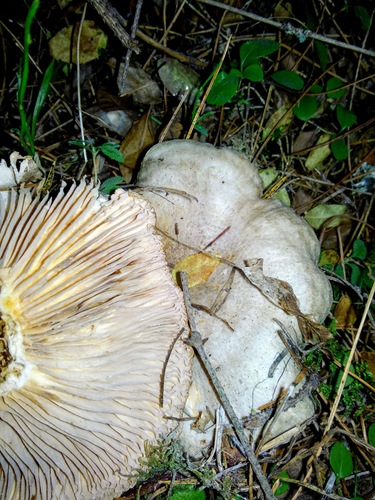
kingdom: Fungi
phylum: Basidiomycota
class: Agaricomycetes
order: Agaricales
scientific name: Agaricales
